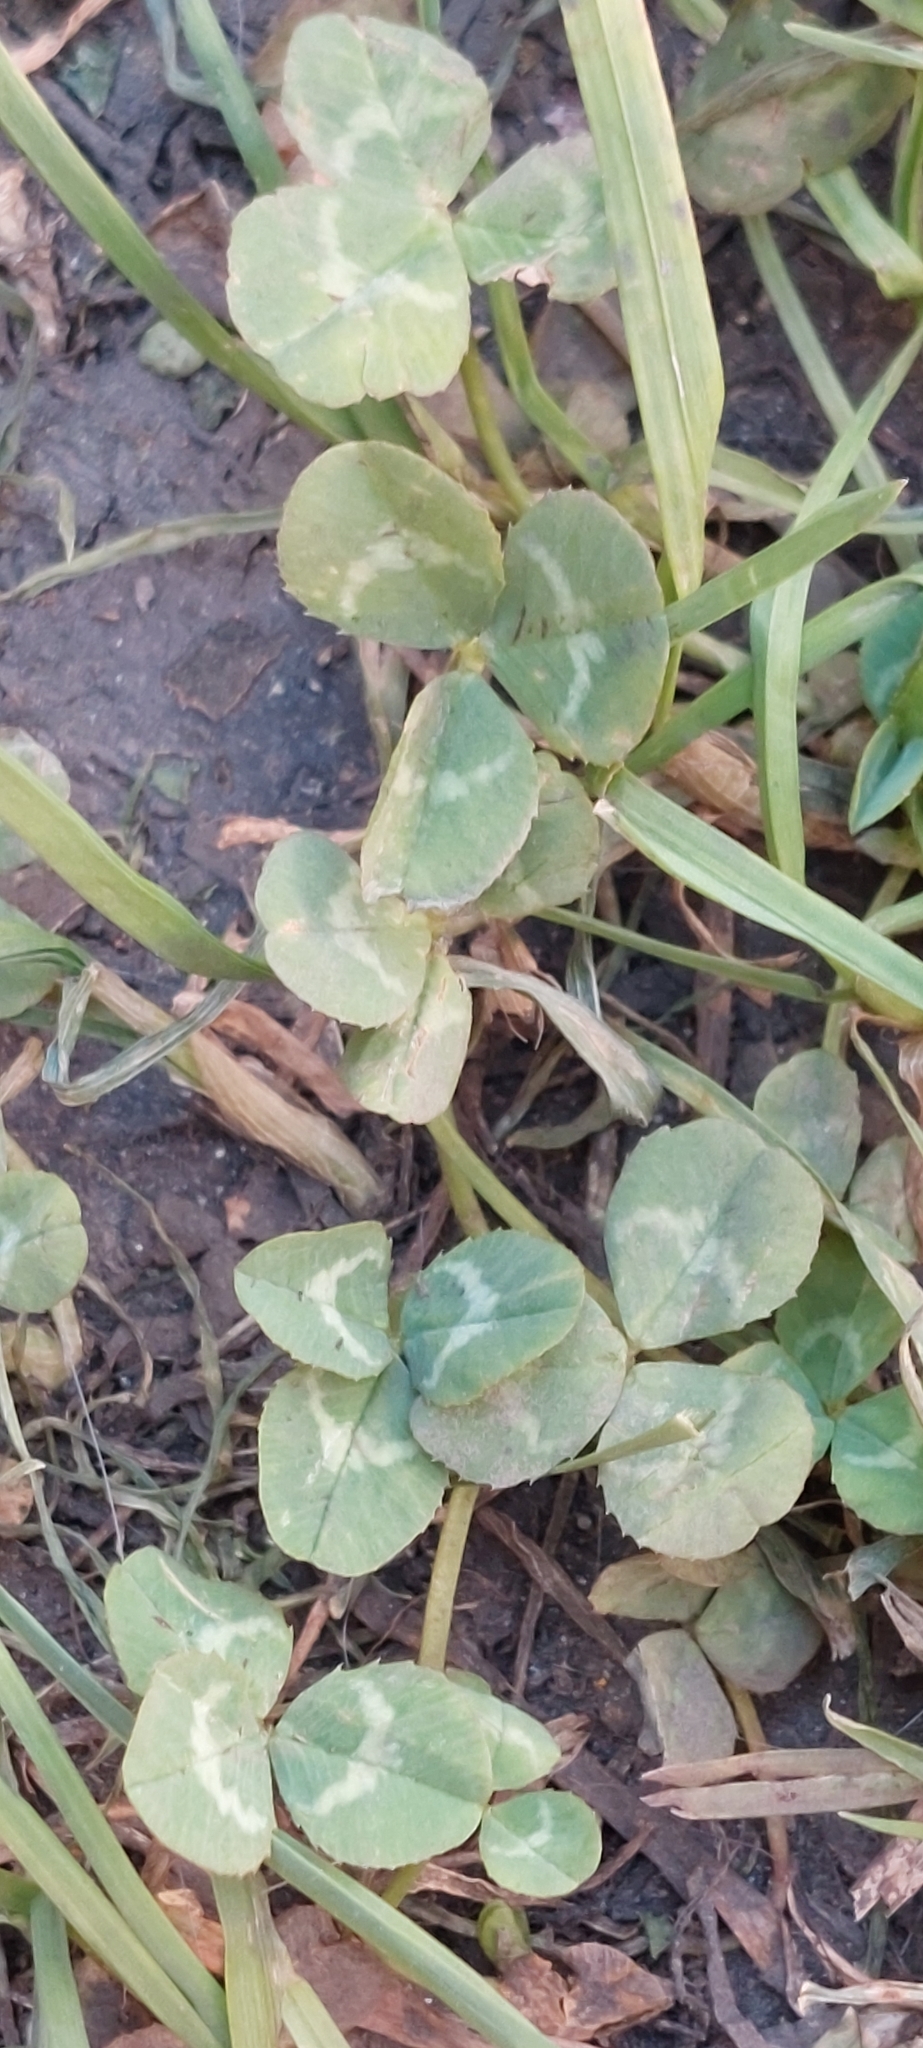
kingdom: Plantae
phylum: Tracheophyta
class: Magnoliopsida
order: Fabales
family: Fabaceae
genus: Trifolium
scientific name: Trifolium repens
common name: White clover
